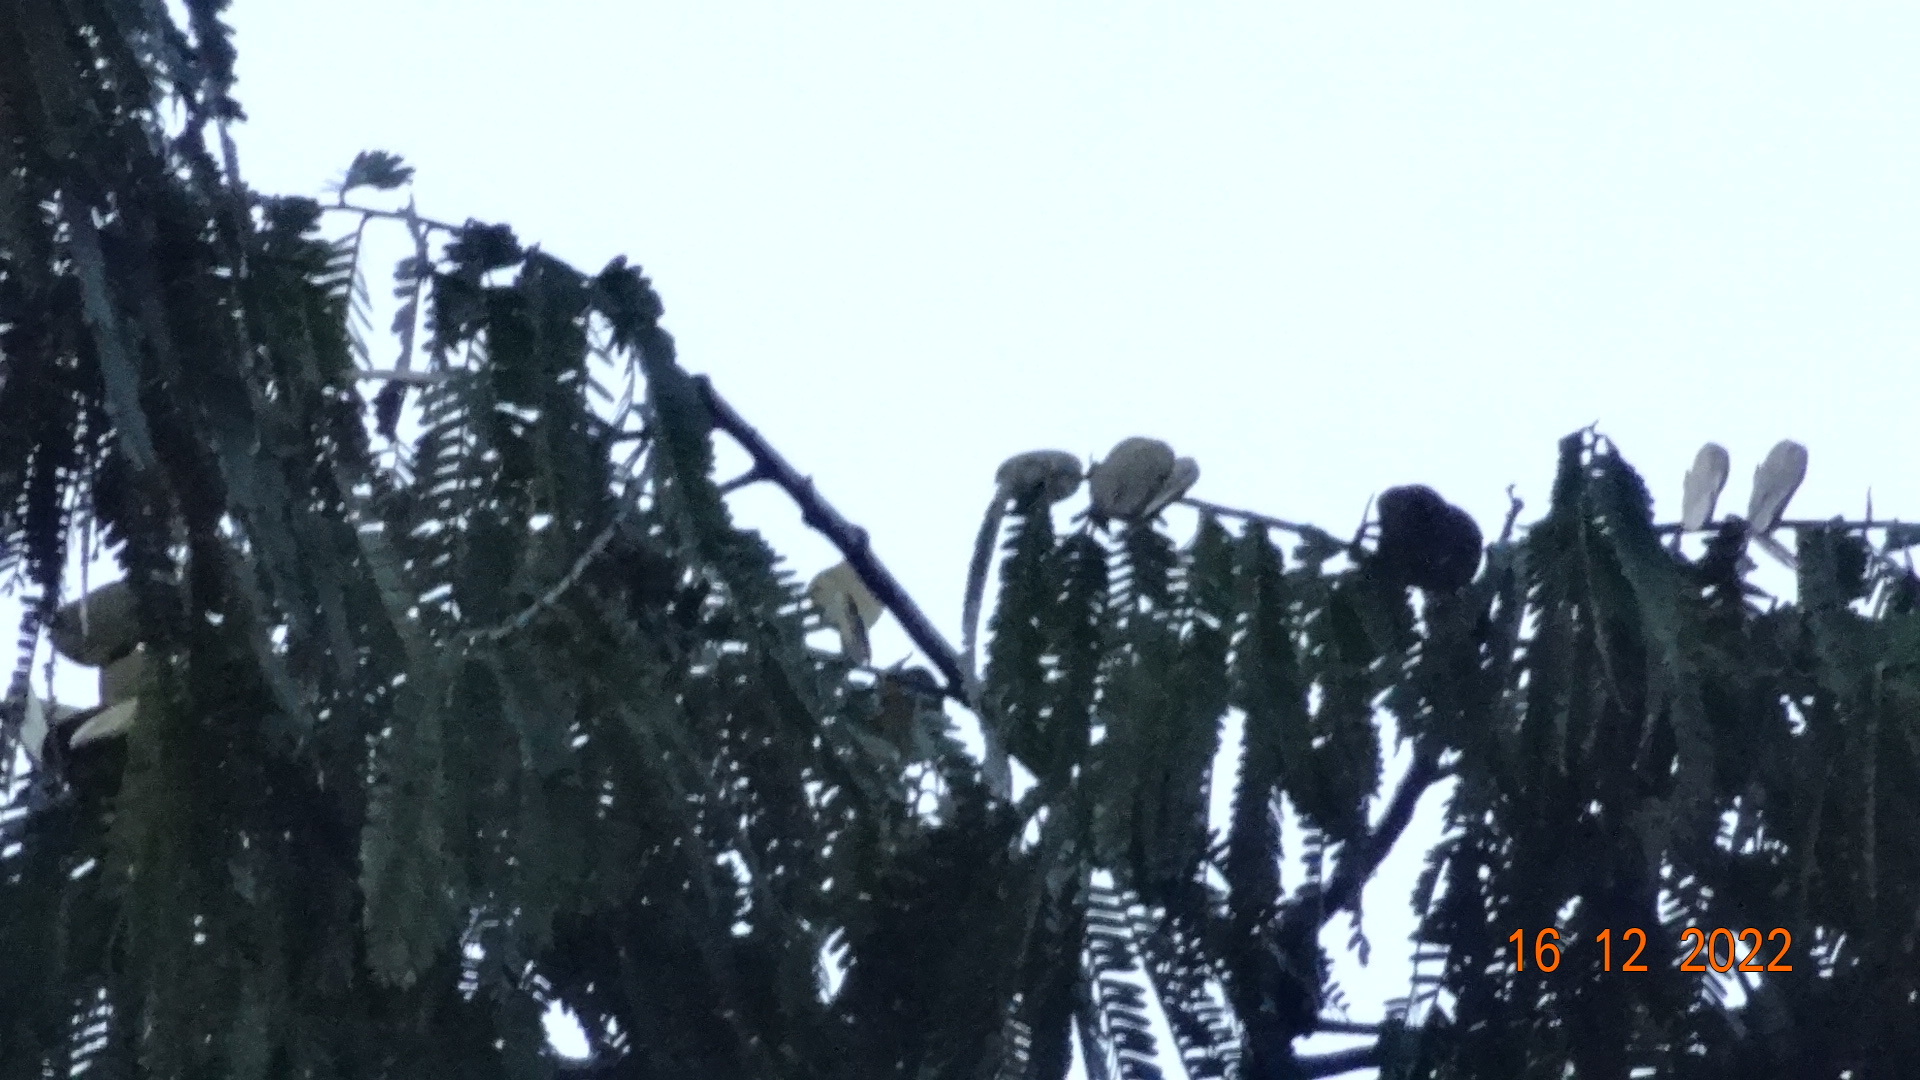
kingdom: Plantae
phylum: Tracheophyta
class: Magnoliopsida
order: Fabales
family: Fabaceae
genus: Macrolobium
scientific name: Macrolobium acaciifolium
